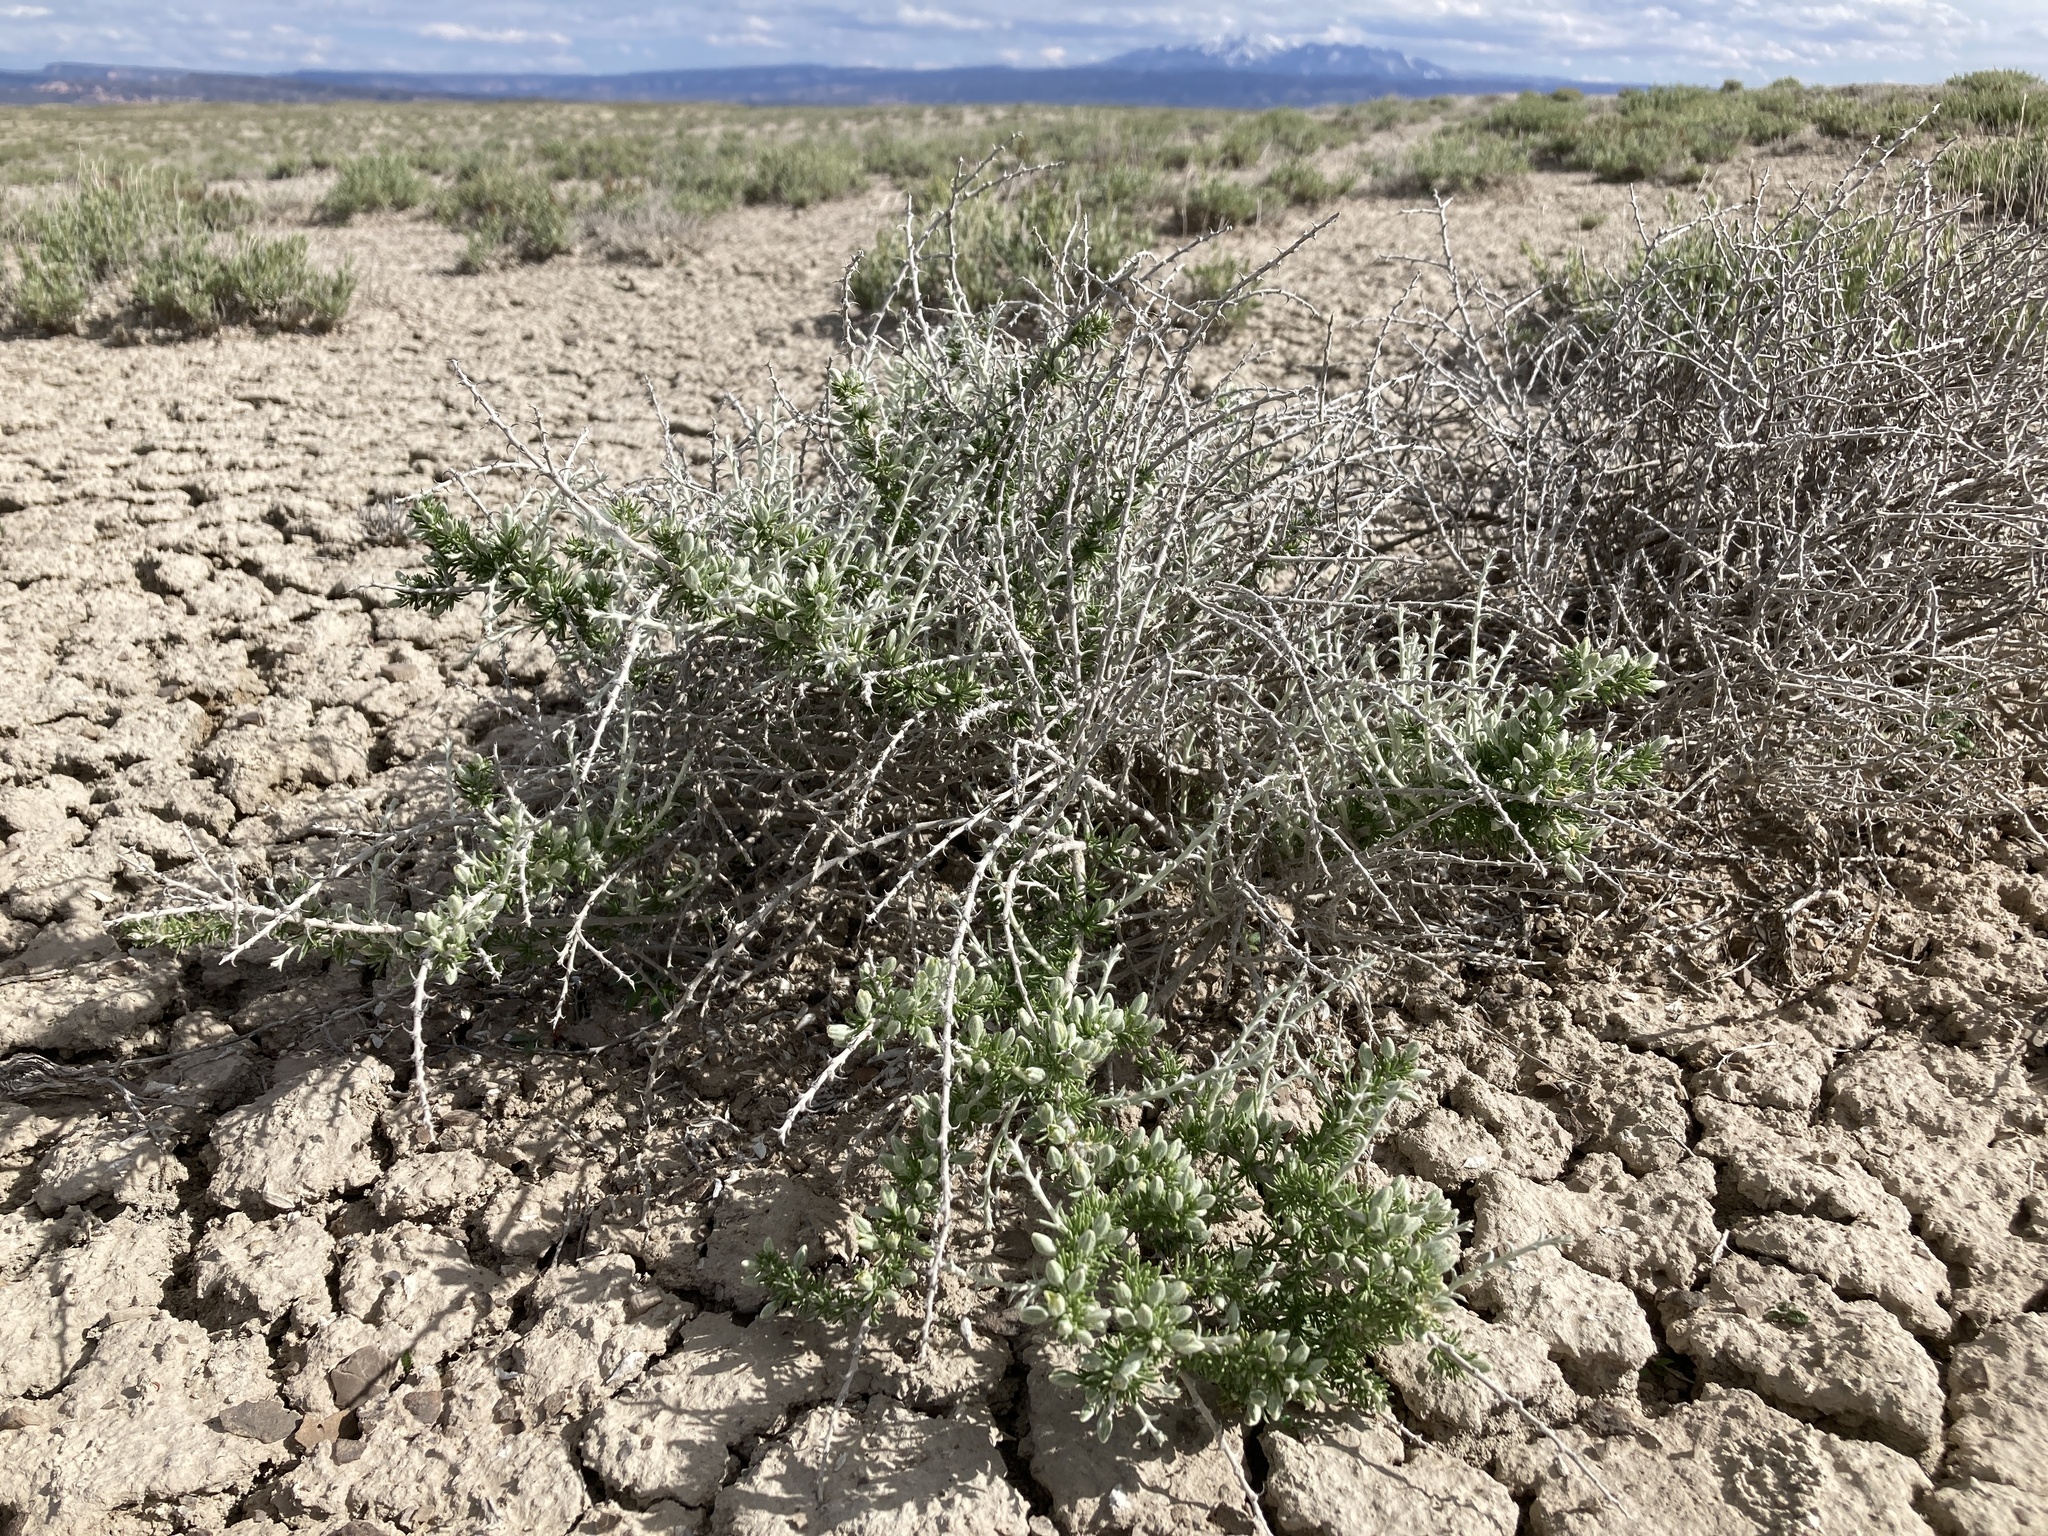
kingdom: Plantae
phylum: Tracheophyta
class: Magnoliopsida
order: Asterales
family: Asteraceae
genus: Tetradymia
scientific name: Tetradymia spinosa
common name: Thorny horsebrush
